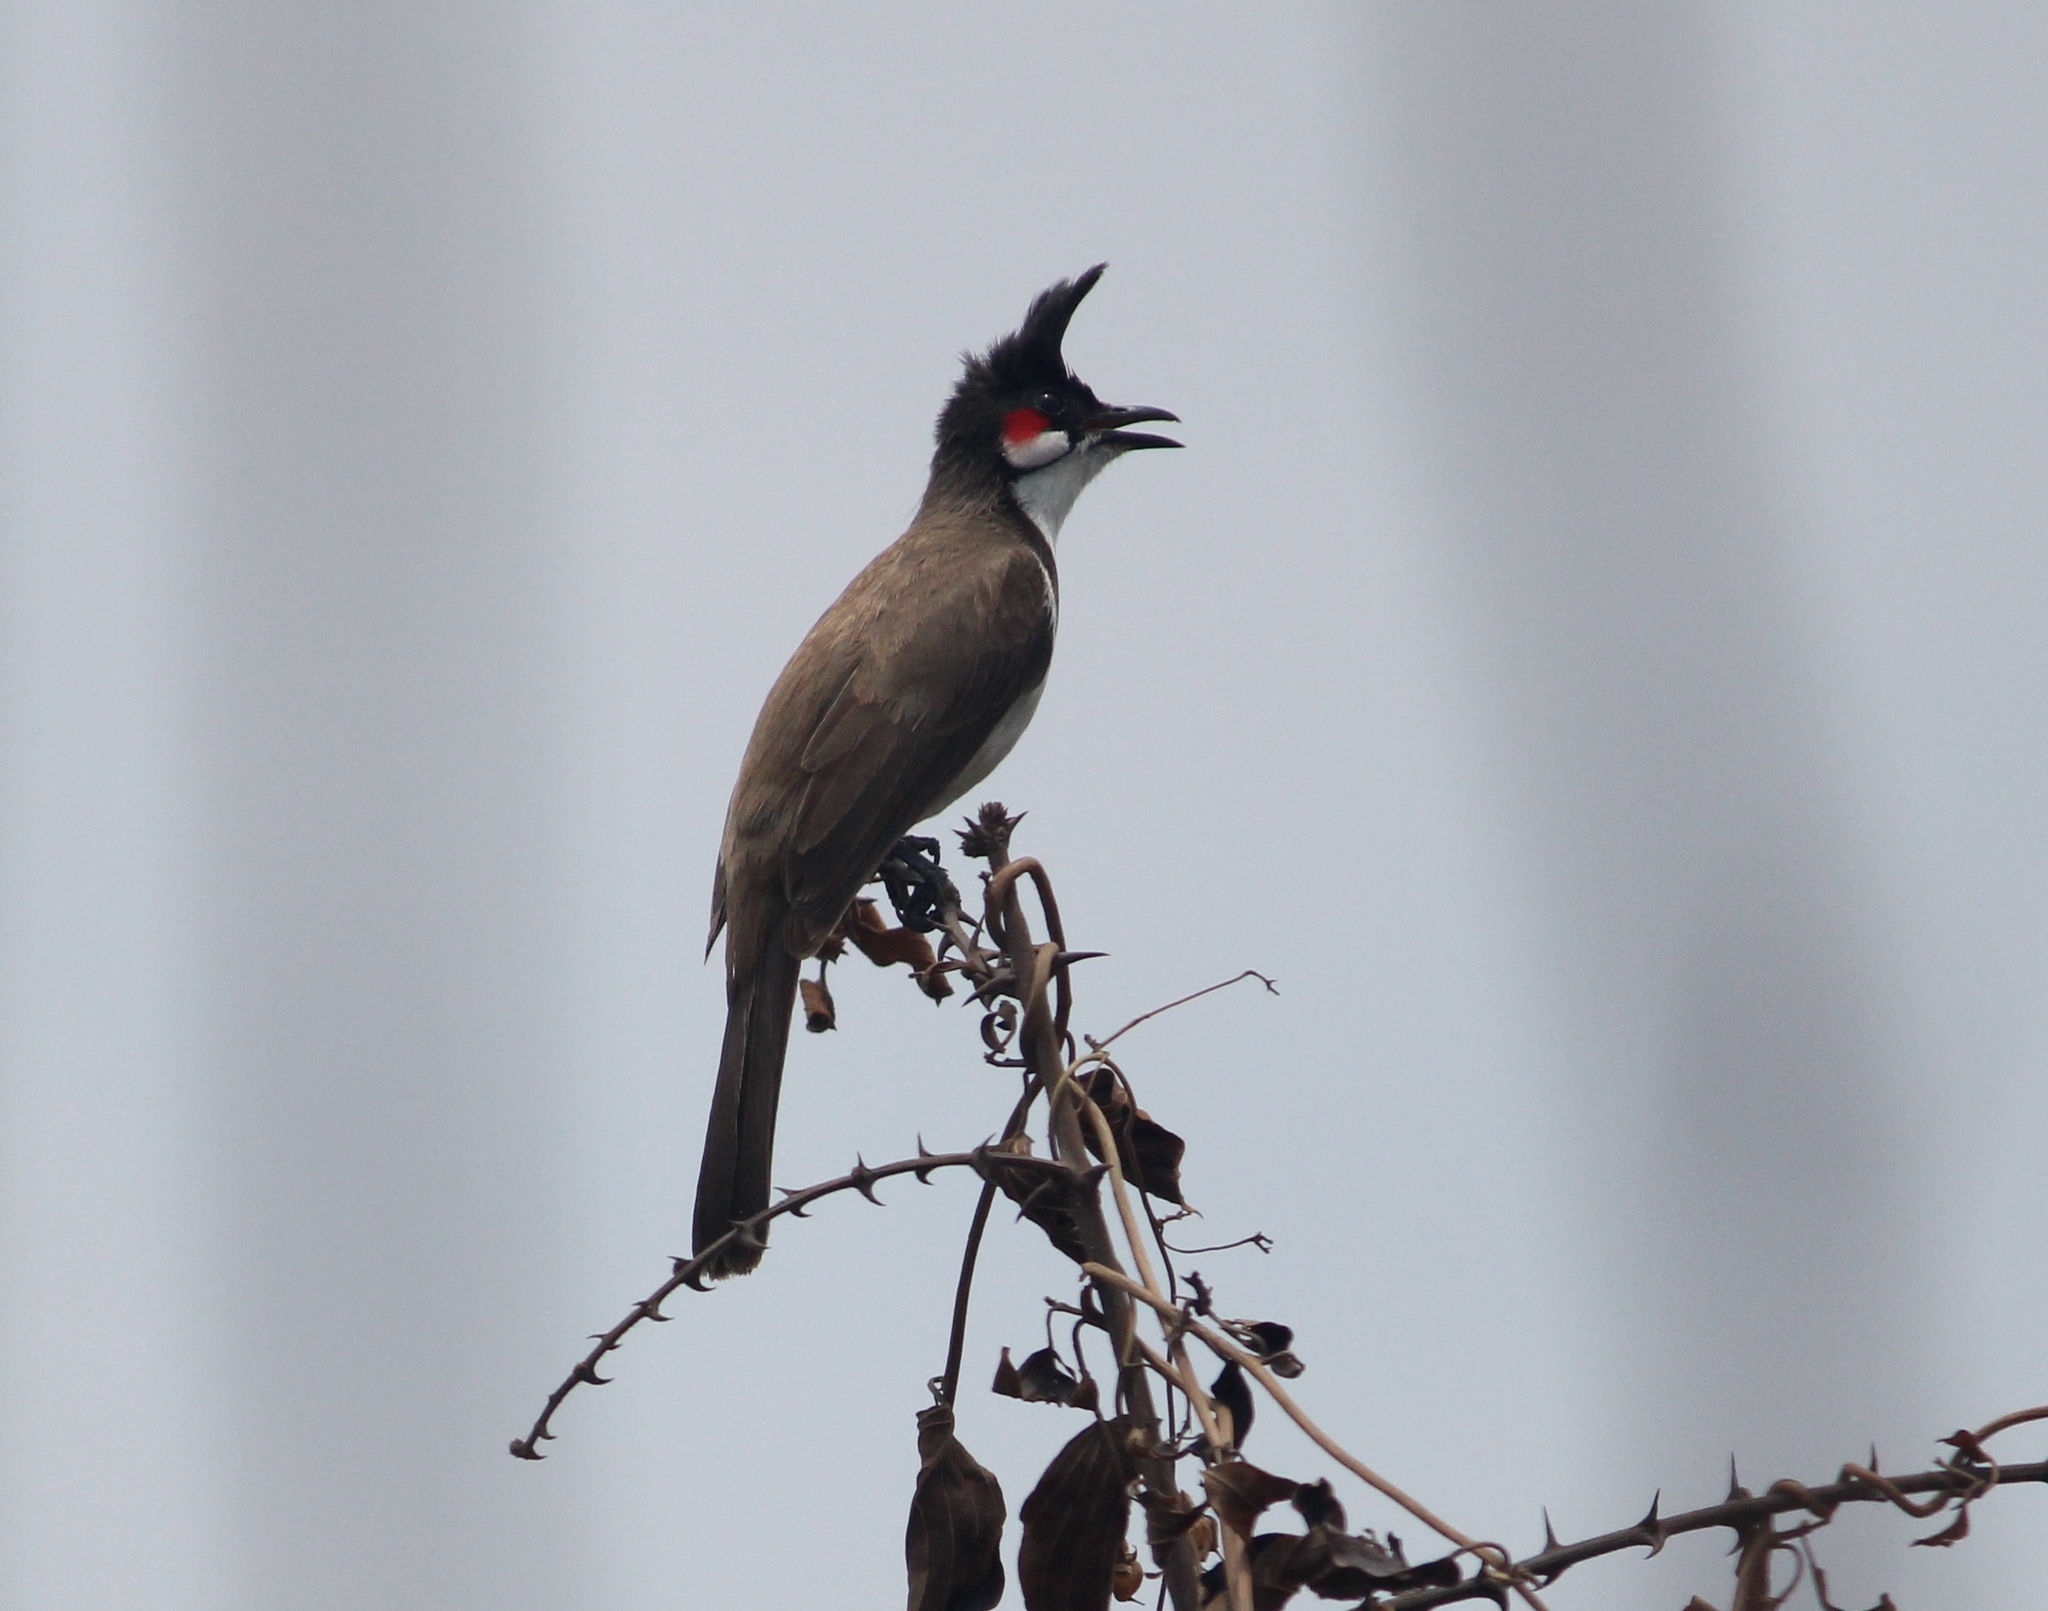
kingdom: Animalia
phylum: Chordata
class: Aves
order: Passeriformes
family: Pycnonotidae
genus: Pycnonotus
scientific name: Pycnonotus jocosus
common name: Red-whiskered bulbul
